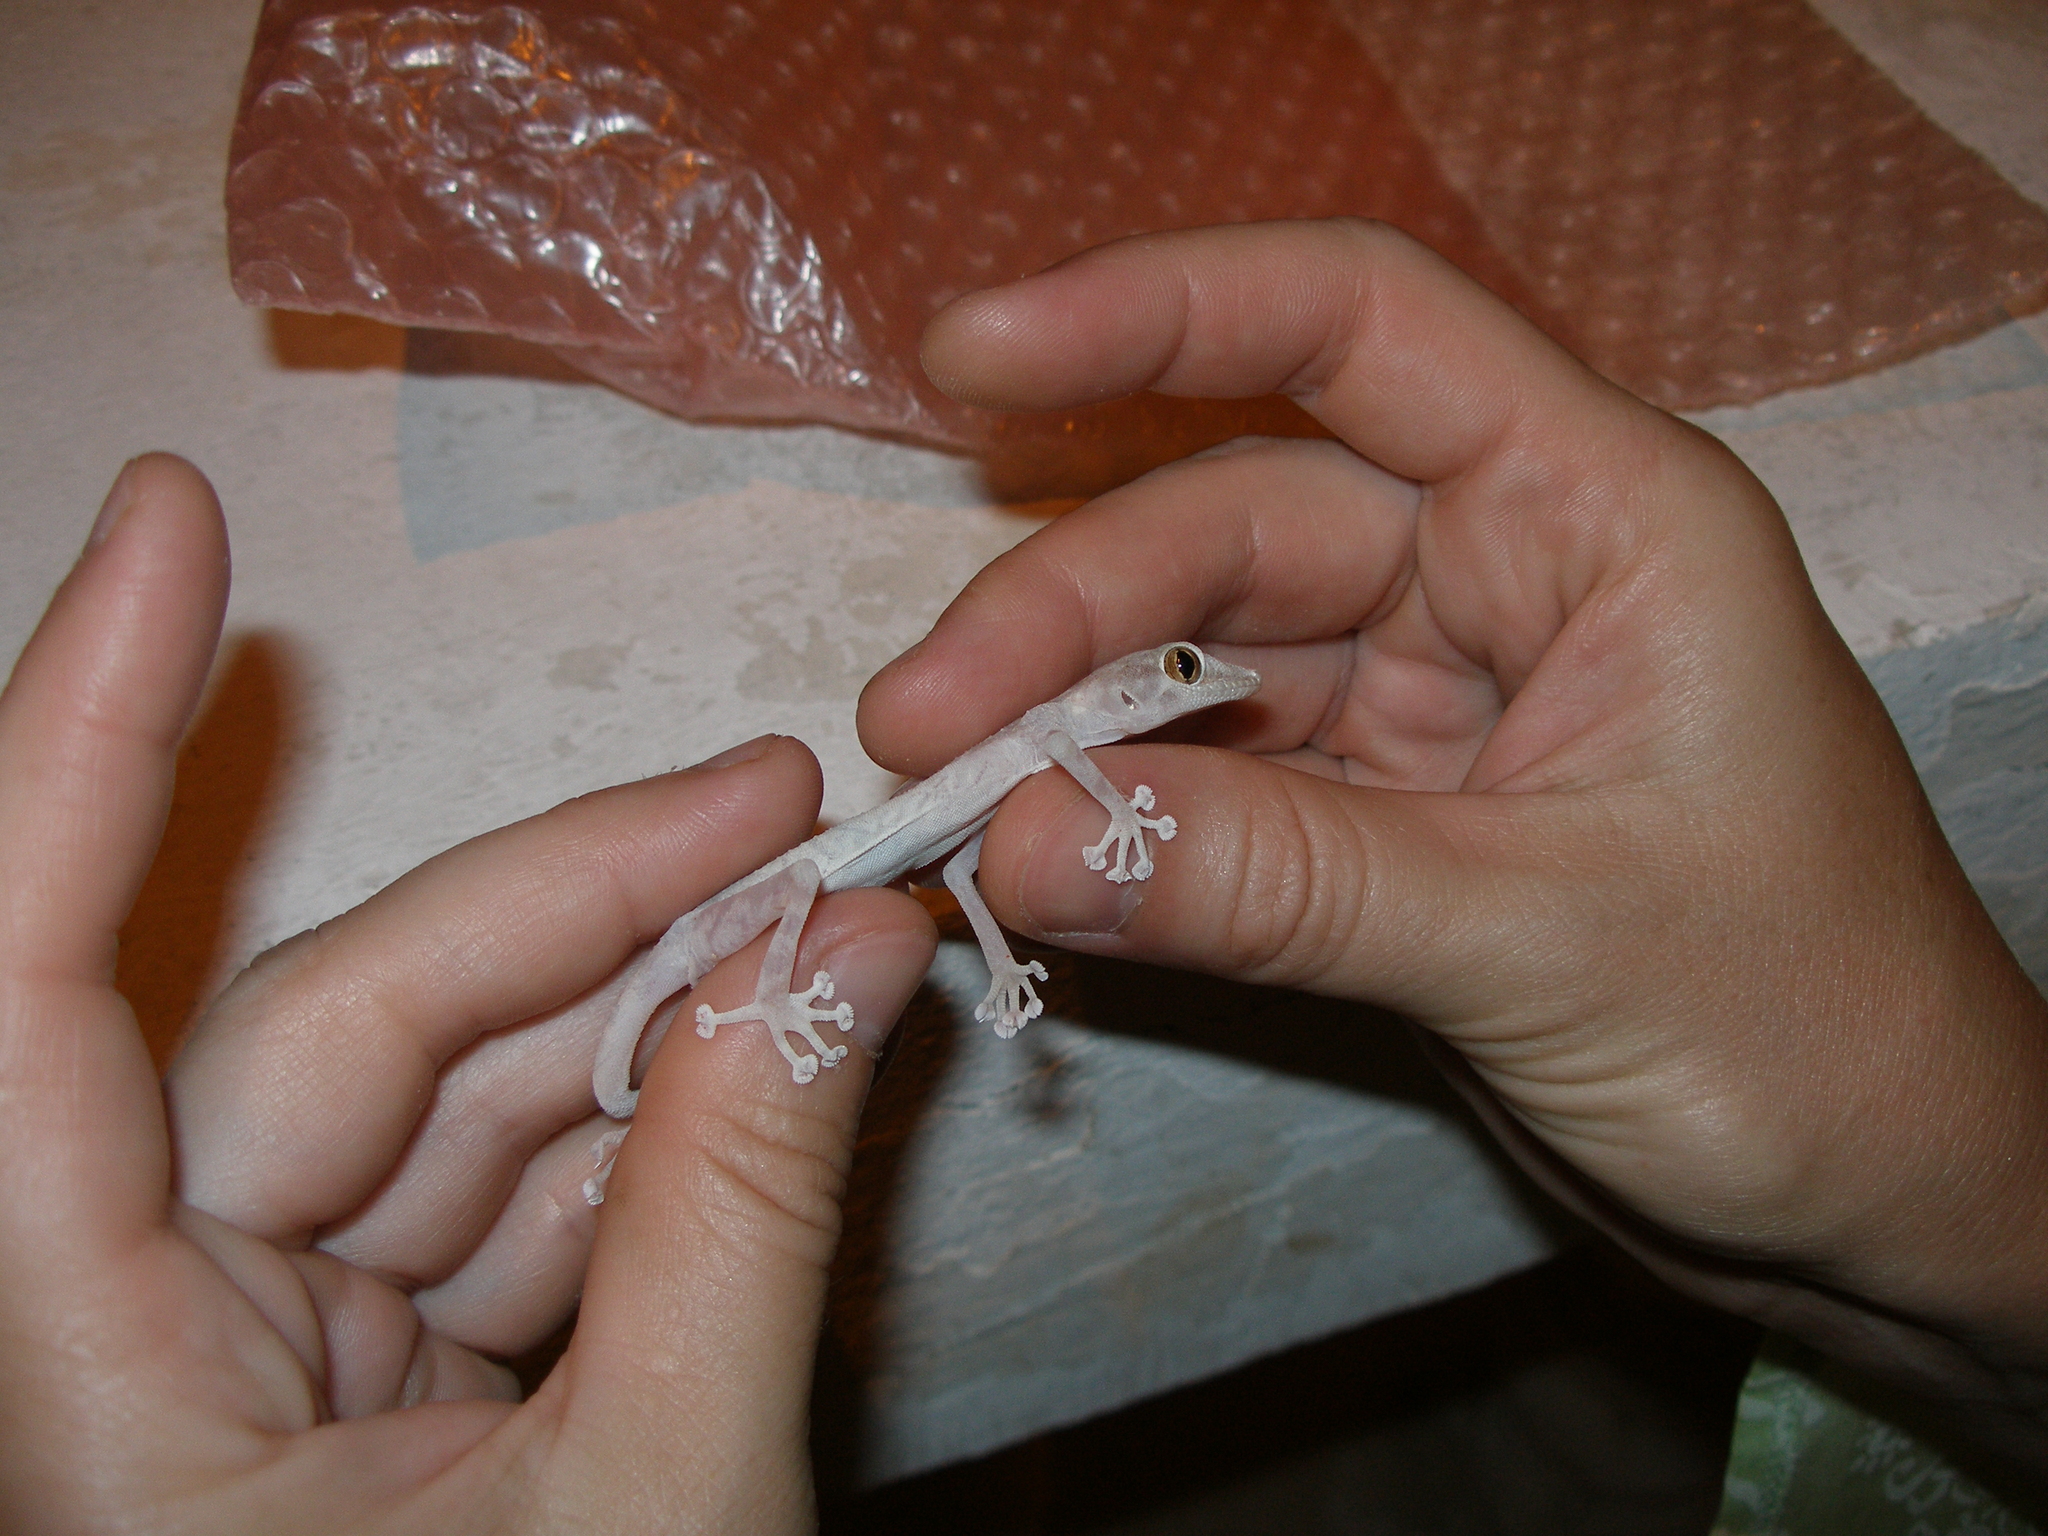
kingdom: Animalia
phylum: Chordata
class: Squamata
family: Phyllodactylidae
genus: Ptyodactylus
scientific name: Ptyodactylus hasselquistii
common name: Hasselquist’s fan-footed gecko
